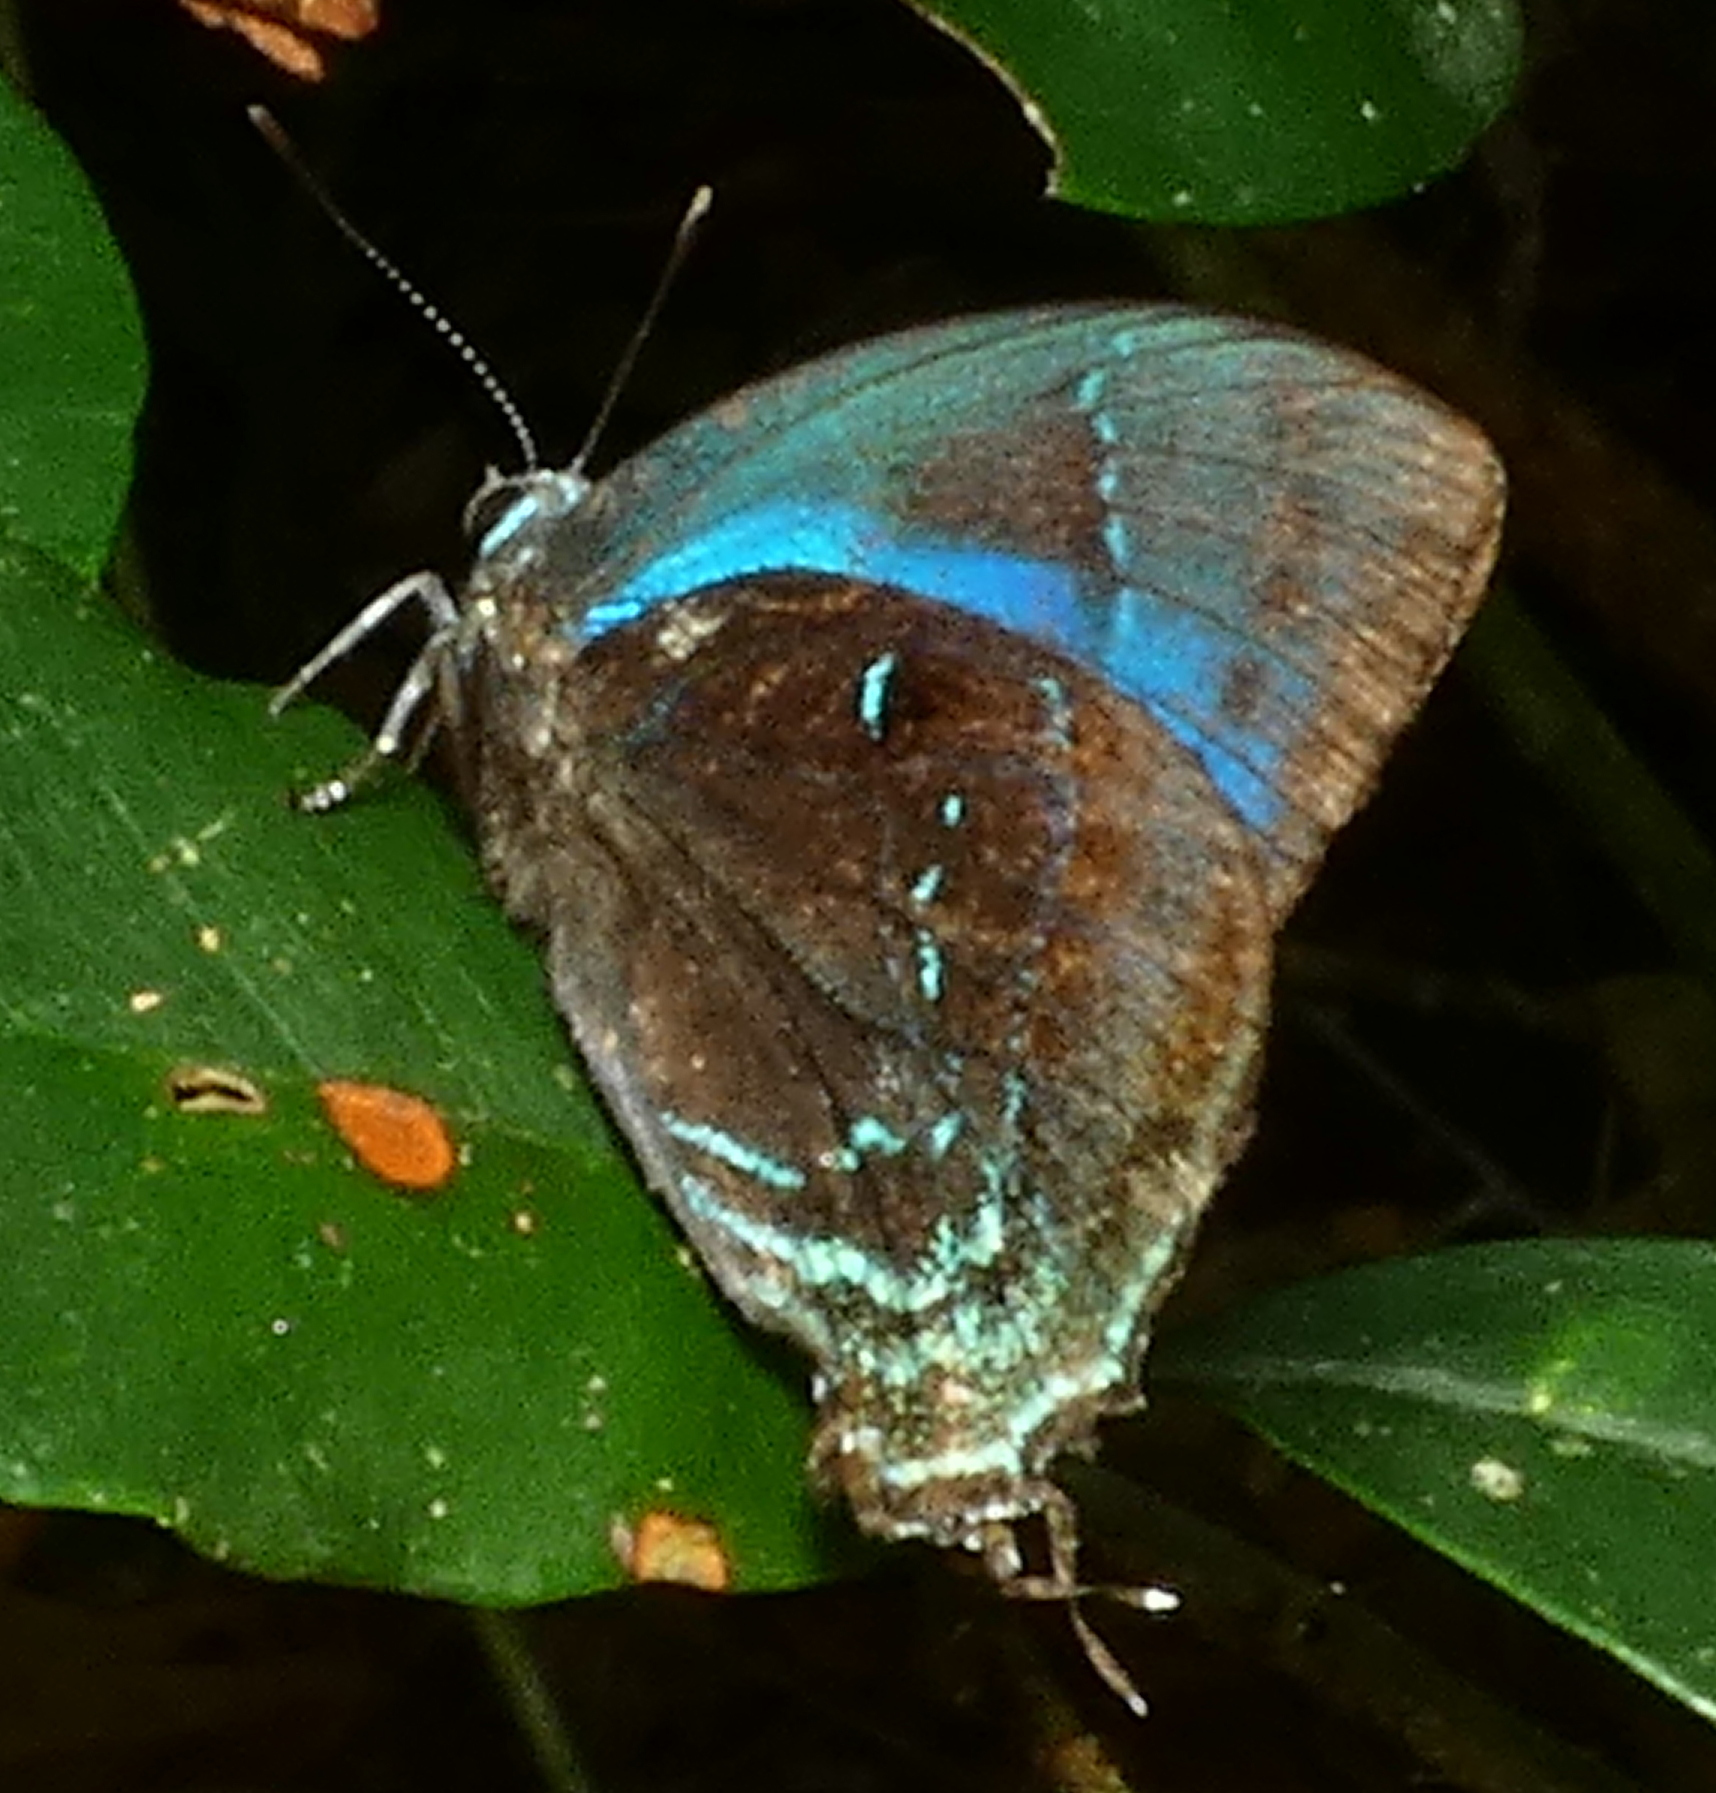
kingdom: Animalia
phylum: Arthropoda
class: Insecta
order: Lepidoptera
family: Lycaenidae
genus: Denivia
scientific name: Denivia hemon
